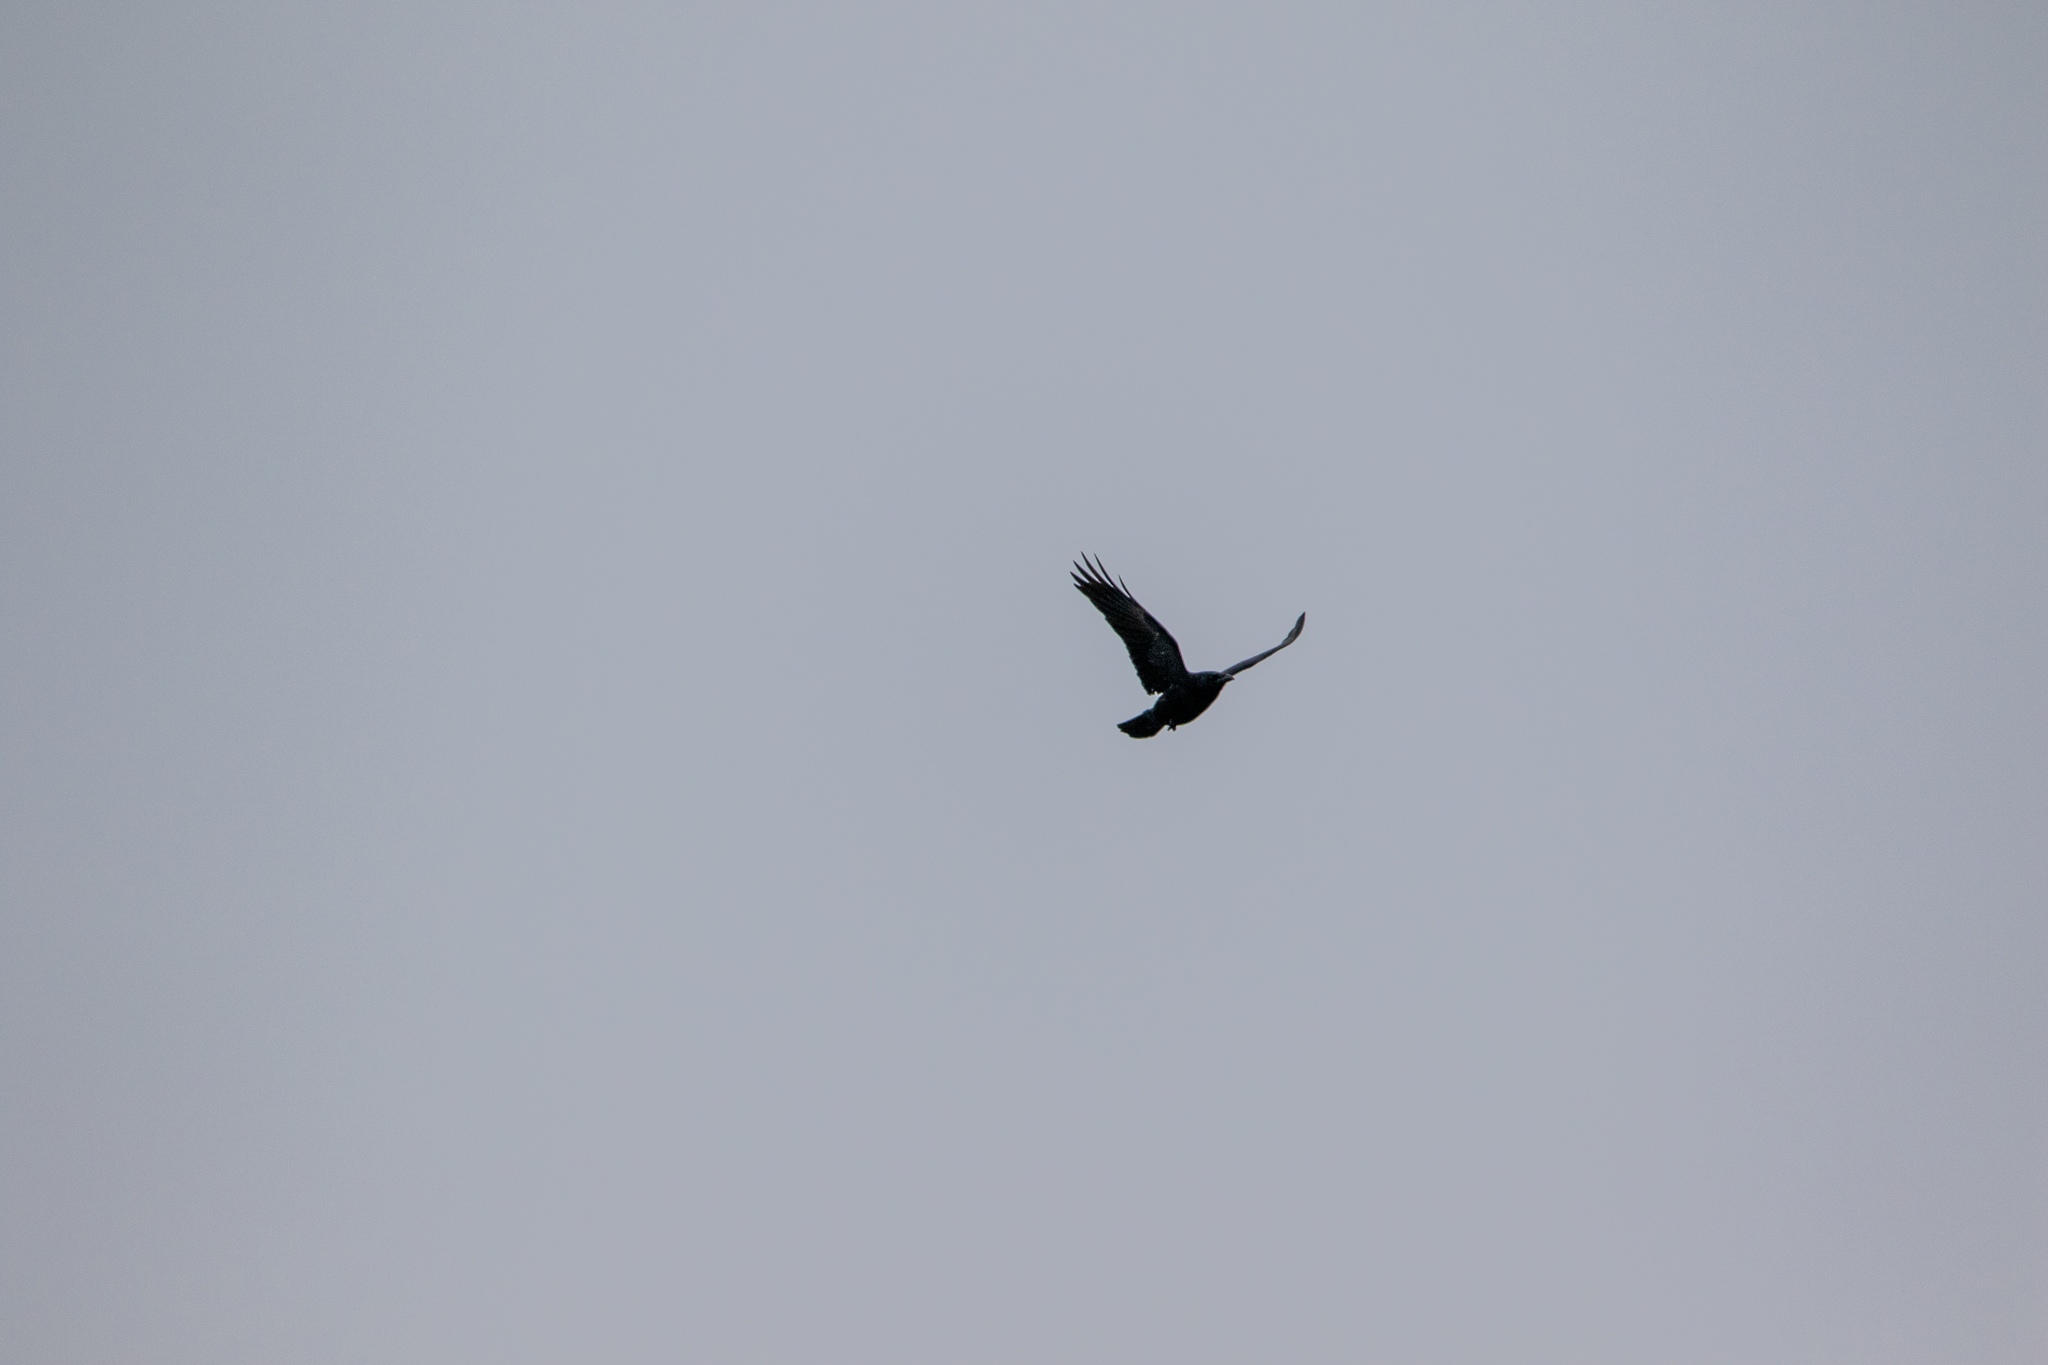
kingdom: Animalia
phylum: Chordata
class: Aves
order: Passeriformes
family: Corvidae
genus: Corvus
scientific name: Corvus corone
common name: Carrion crow
